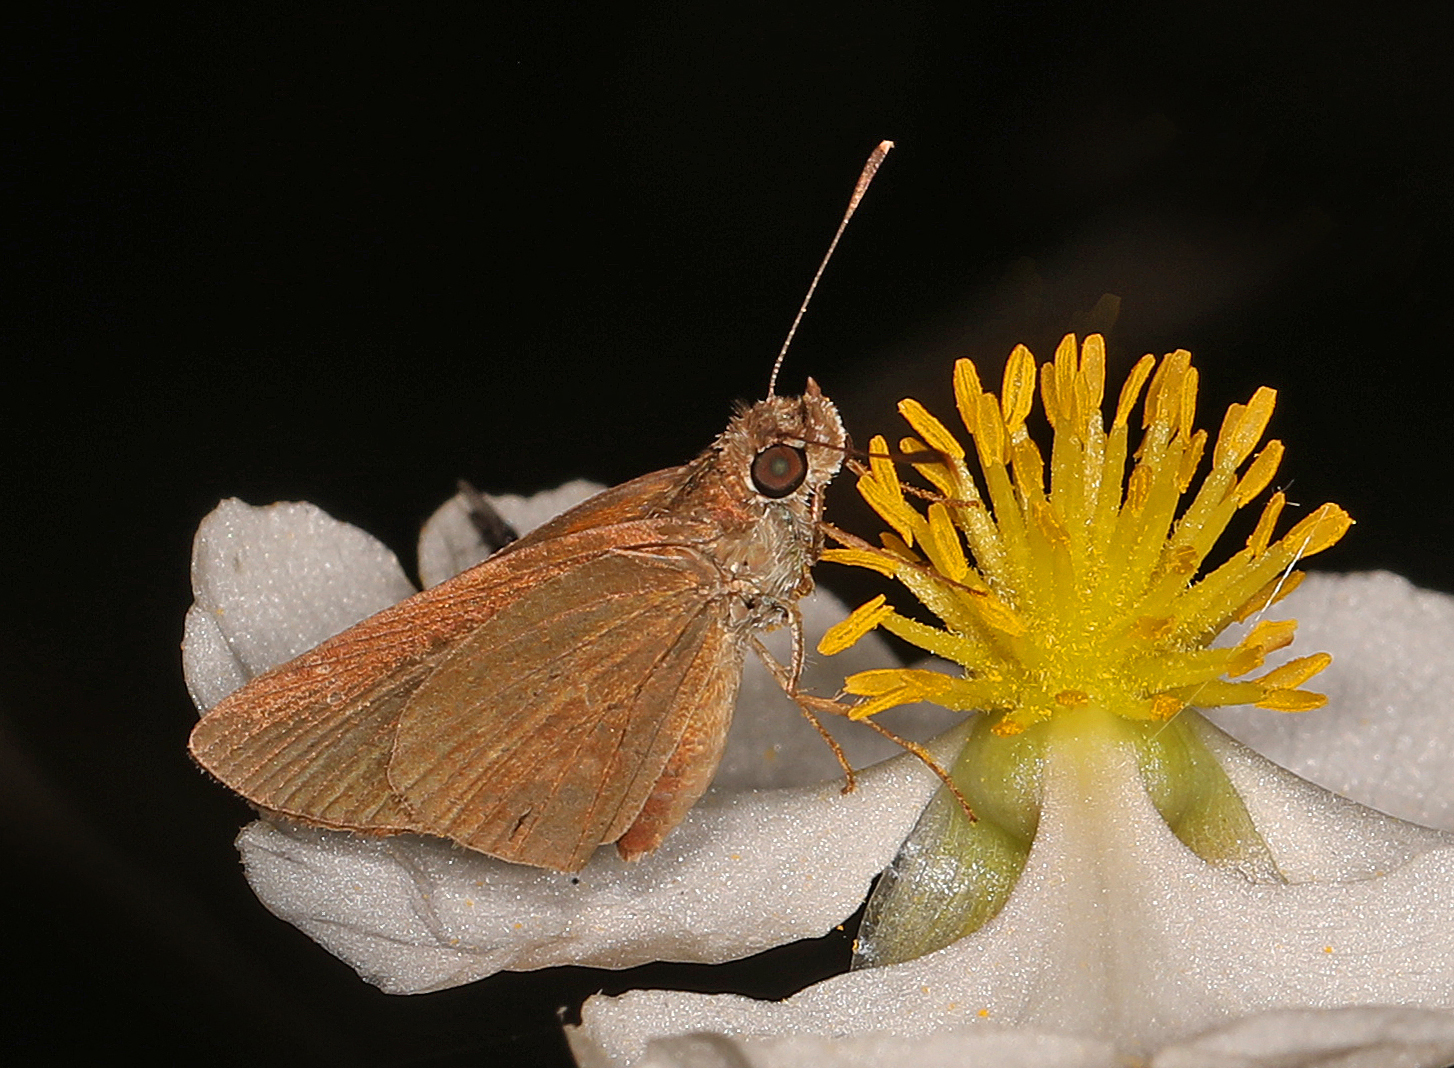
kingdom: Animalia
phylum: Arthropoda
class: Insecta
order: Lepidoptera
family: Hesperiidae
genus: Cymaenes
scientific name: Cymaenes tripunctus
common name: Dingy dotted skipper
